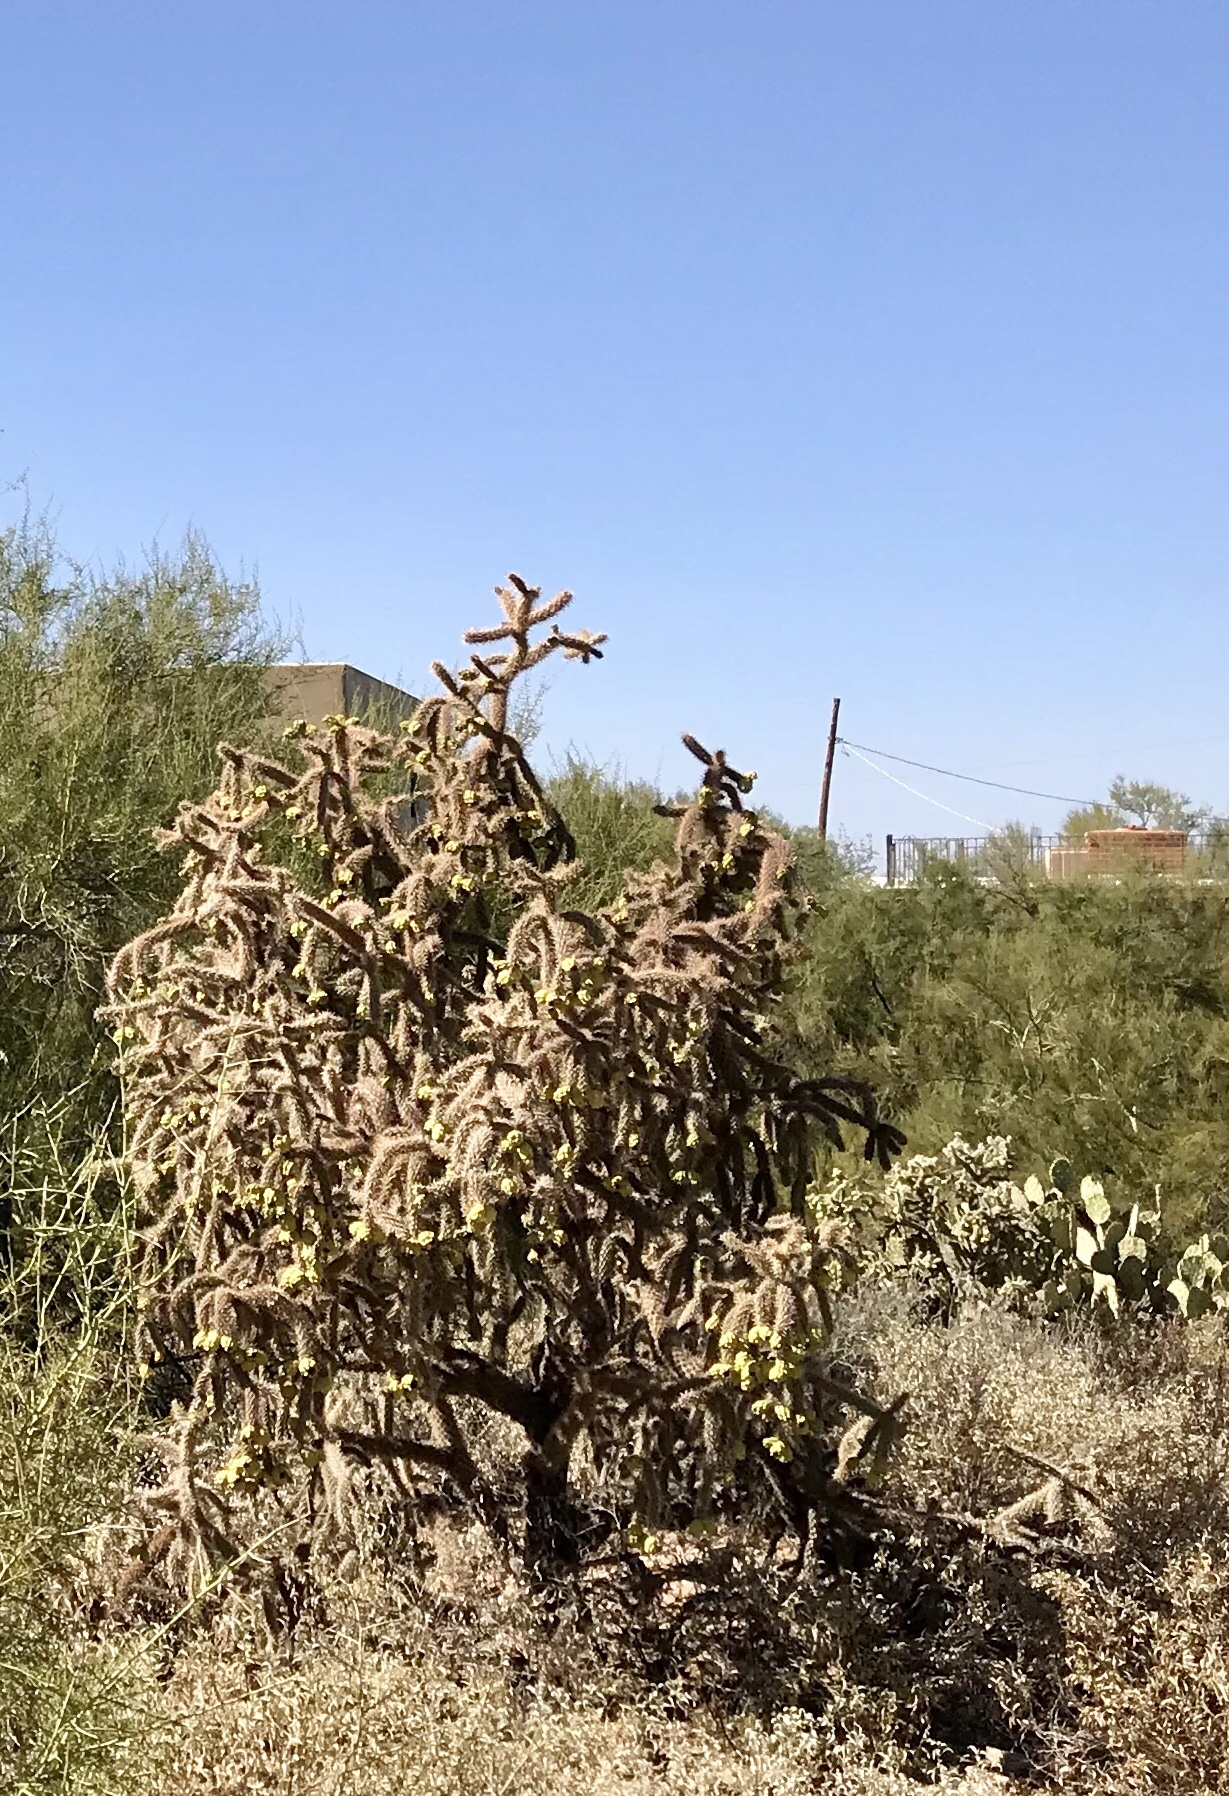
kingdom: Plantae
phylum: Tracheophyta
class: Magnoliopsida
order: Caryophyllales
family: Cactaceae
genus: Cylindropuntia
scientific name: Cylindropuntia thurberi
